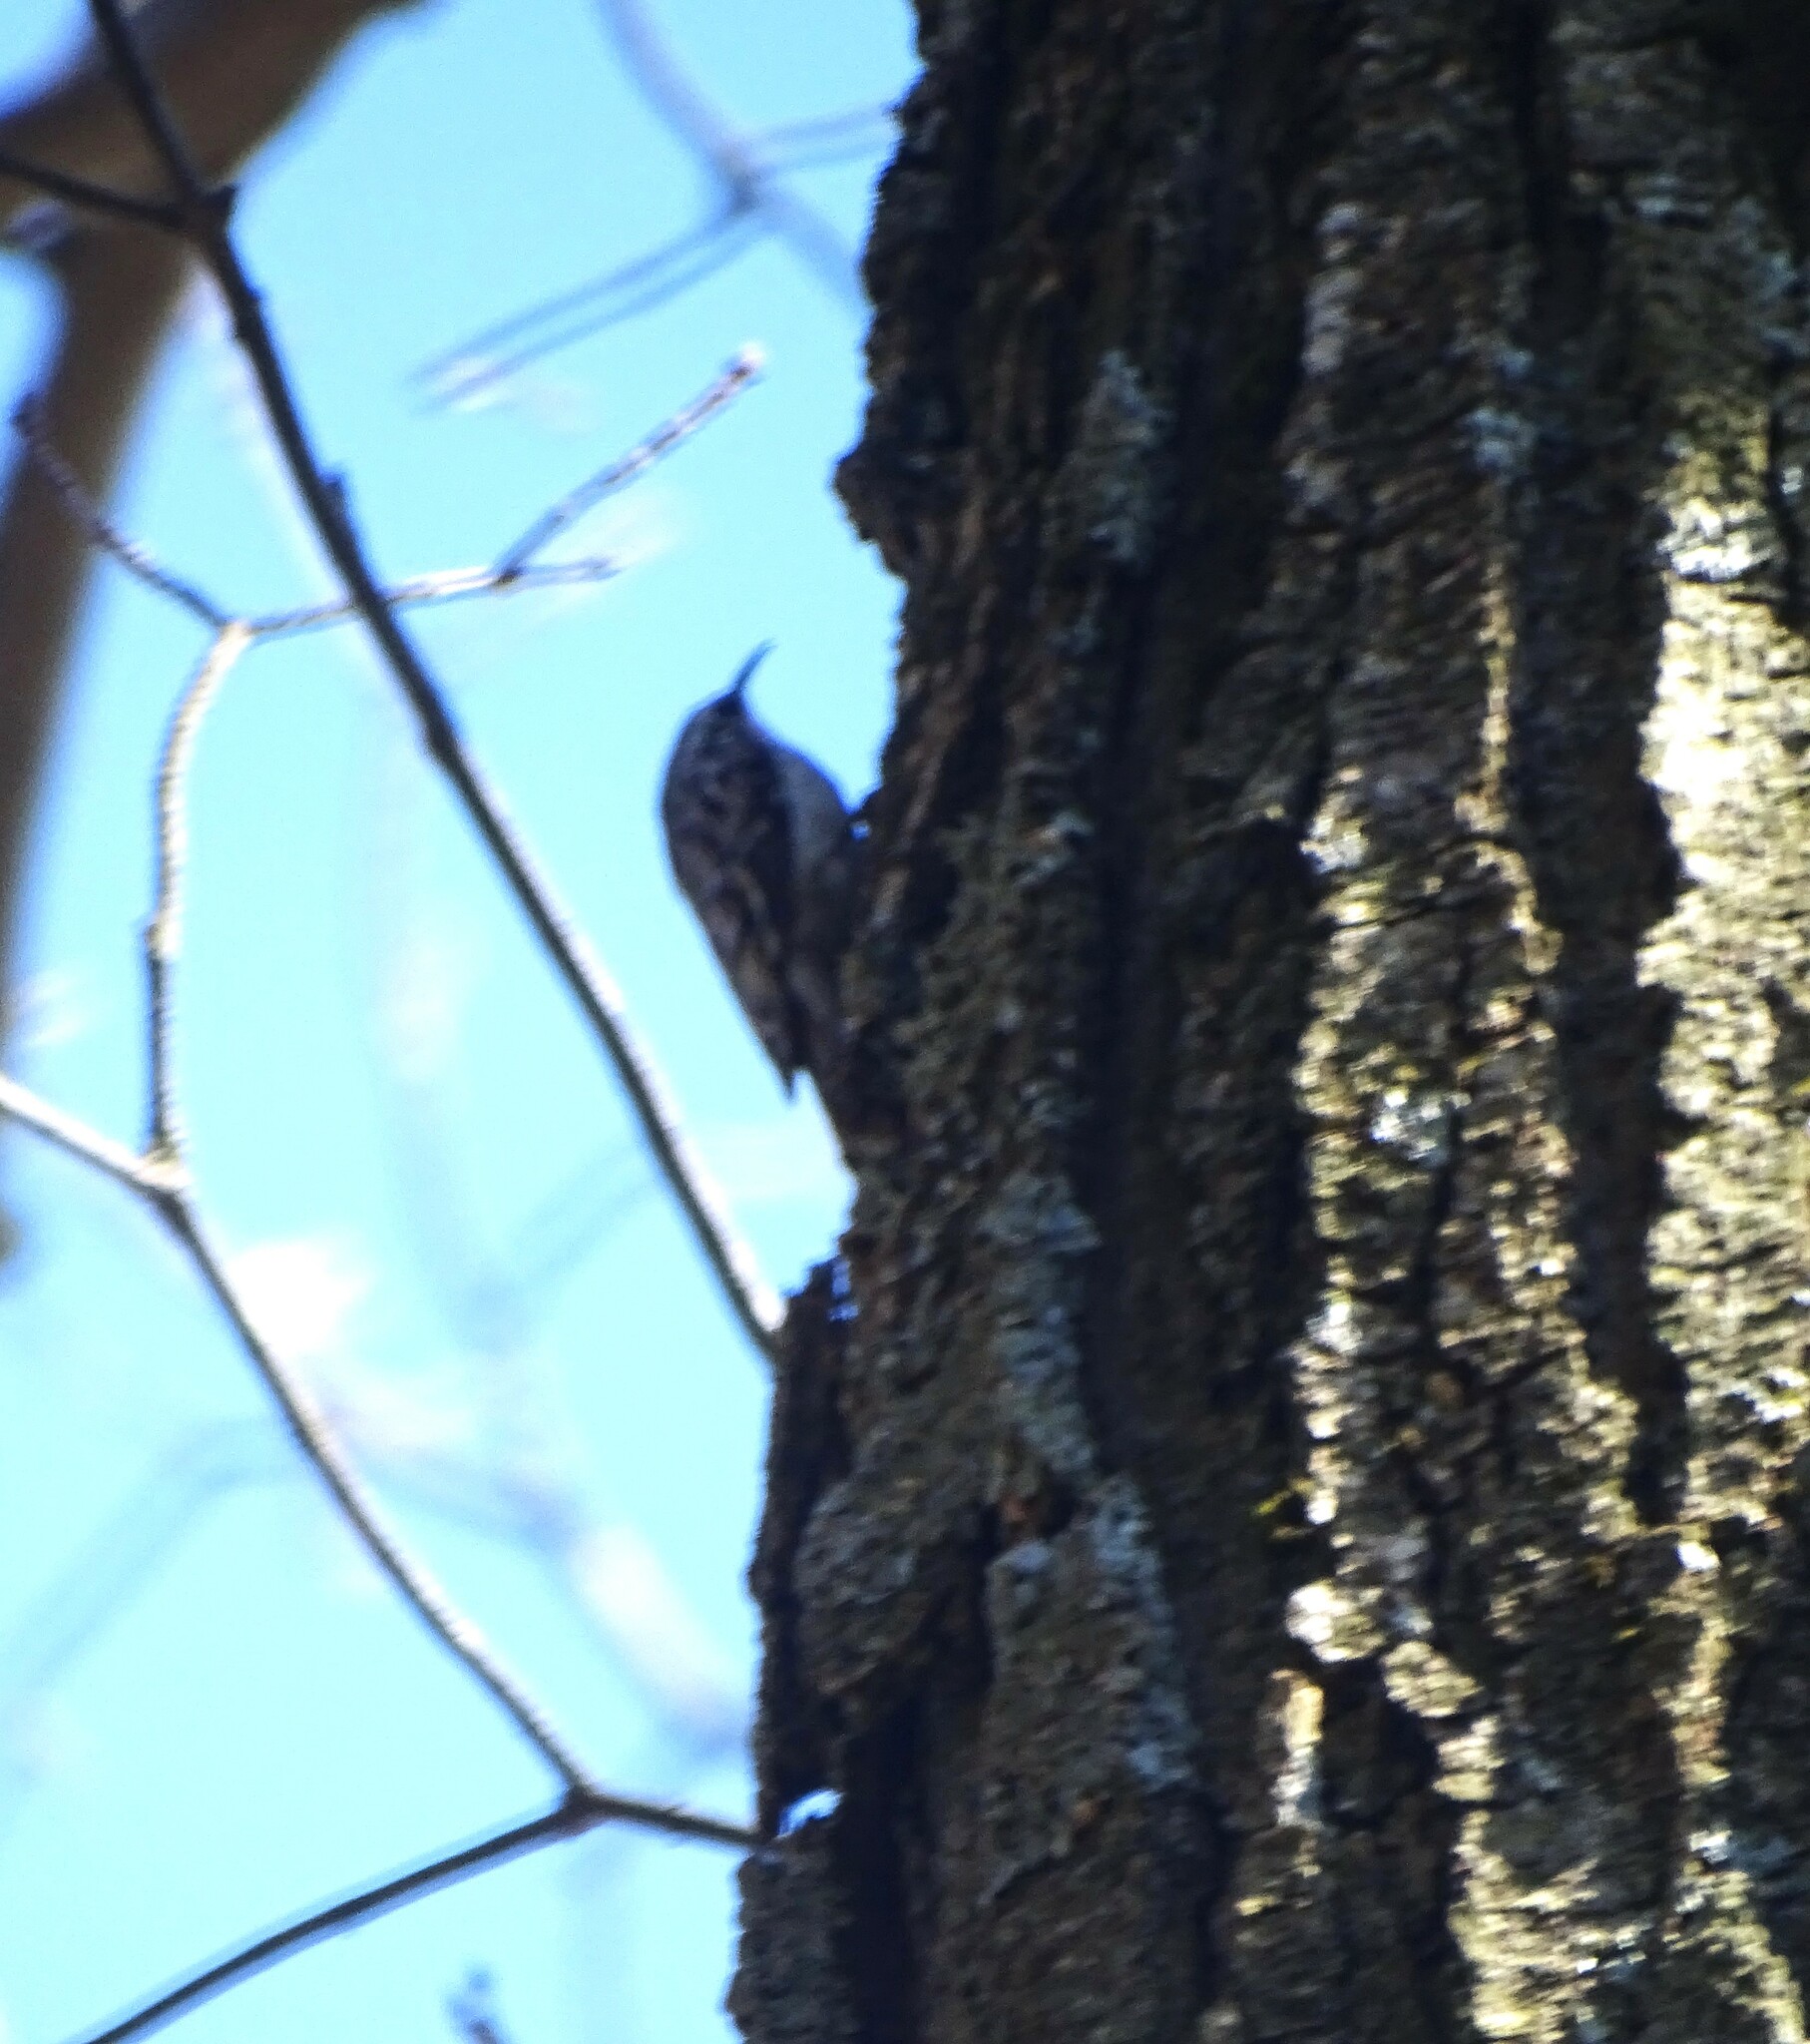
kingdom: Animalia
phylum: Chordata
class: Aves
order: Passeriformes
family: Certhiidae
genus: Certhia
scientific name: Certhia americana
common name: Brown creeper
